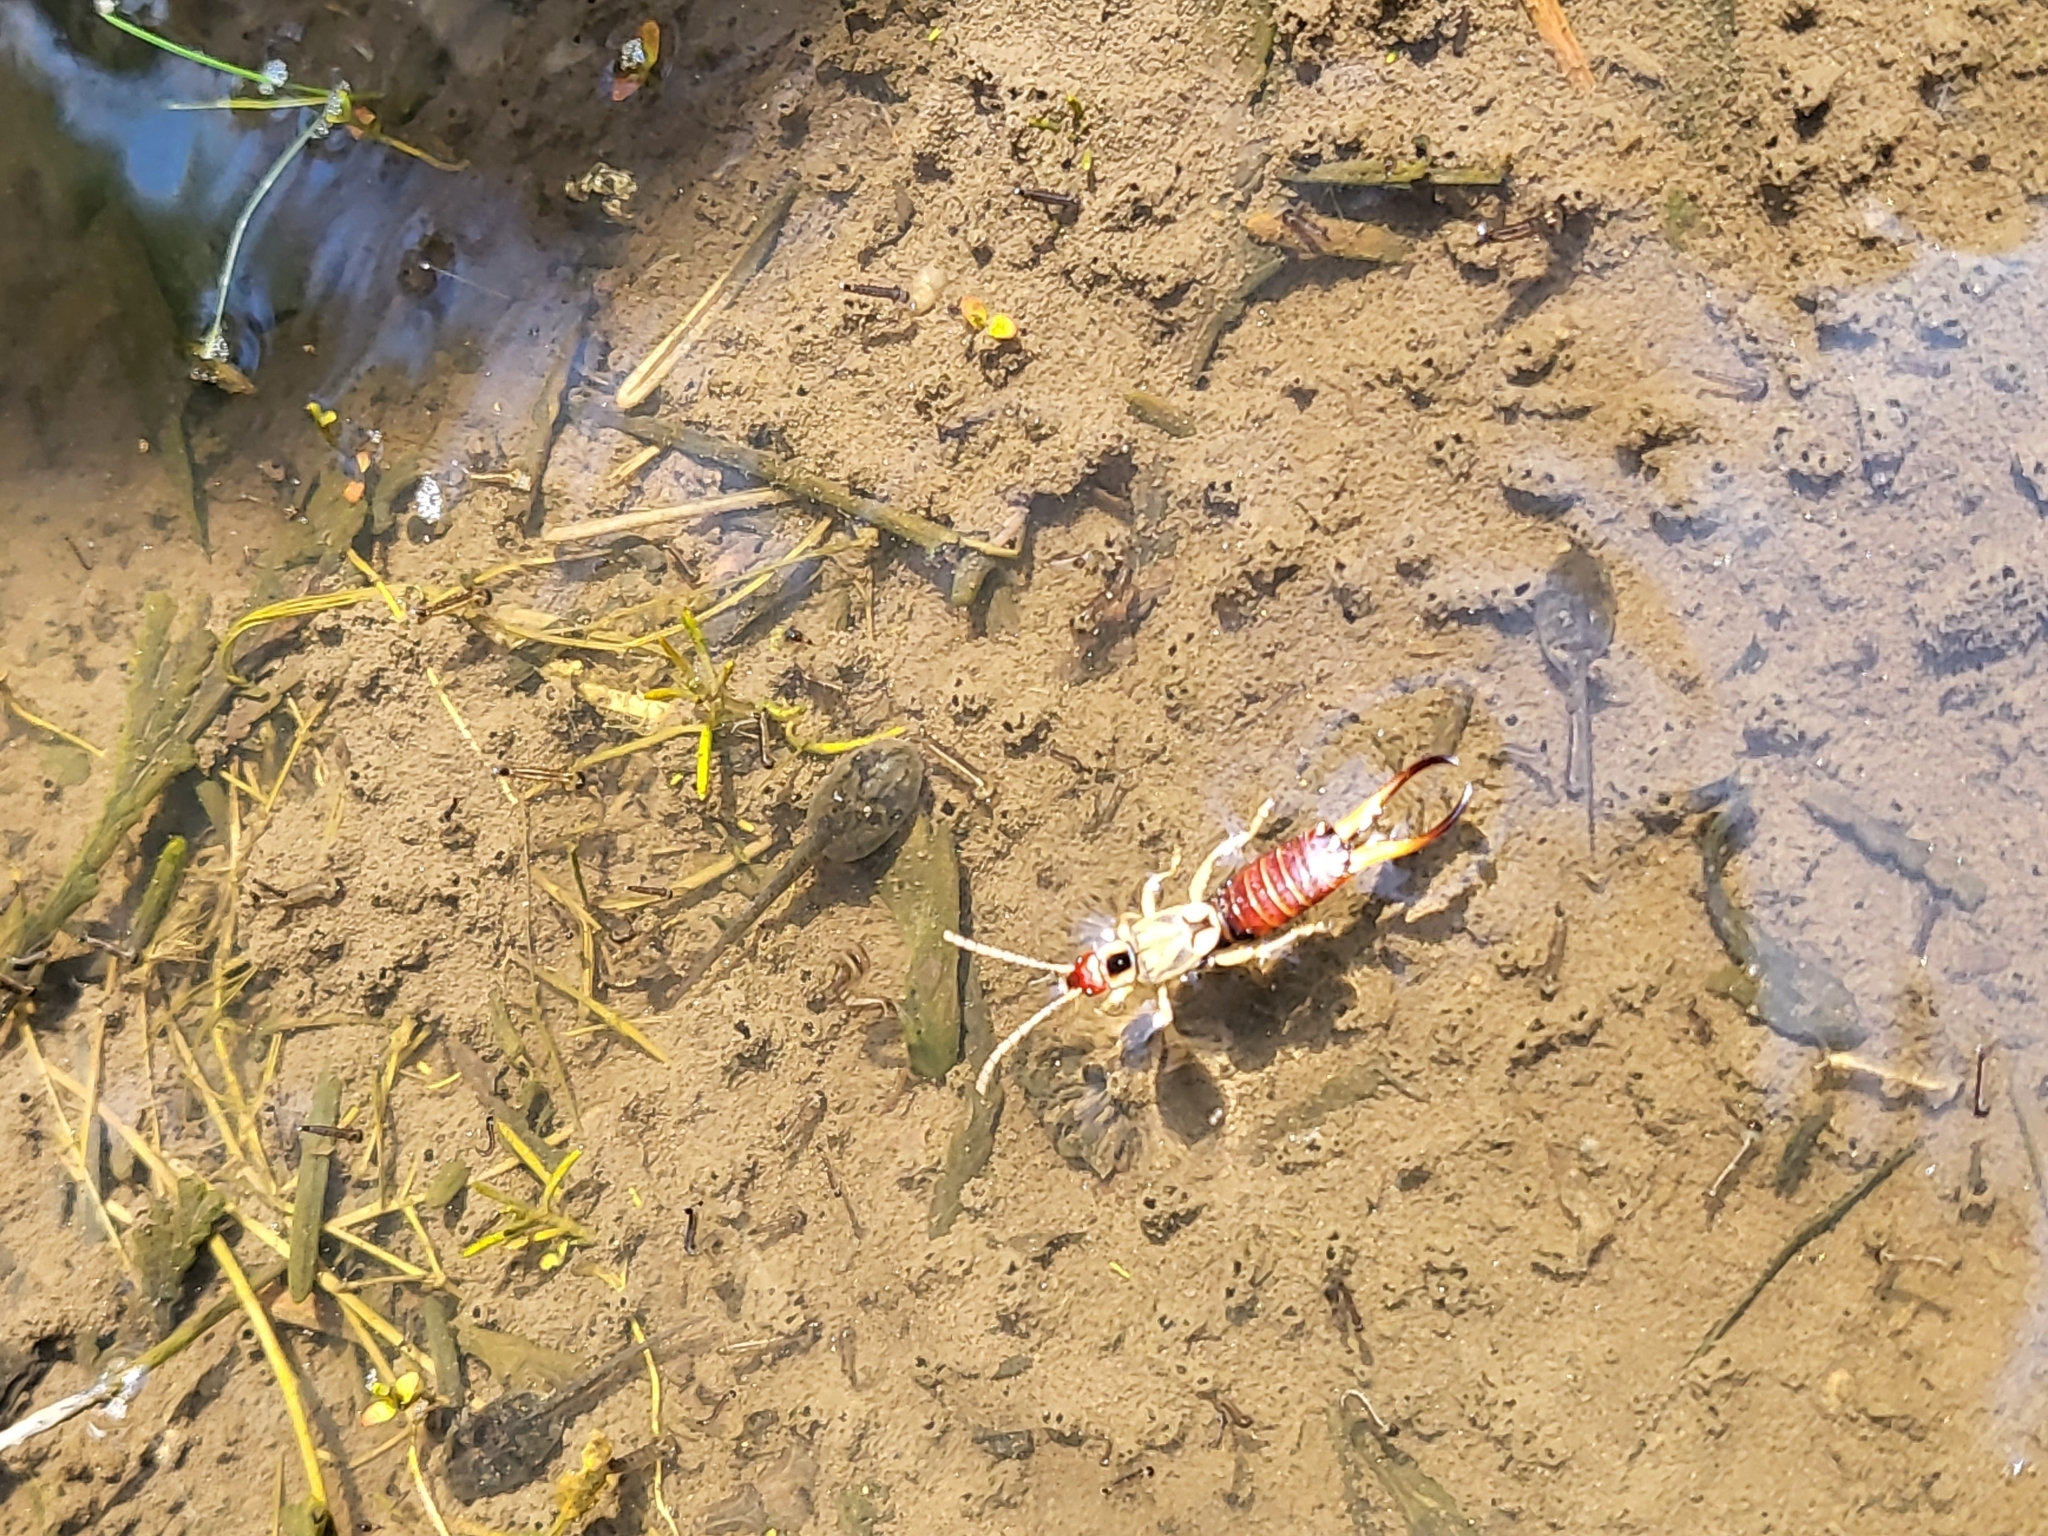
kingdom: Animalia
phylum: Arthropoda
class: Insecta
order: Dermaptera
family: Forficulidae
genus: Forficula
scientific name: Forficula dentata
